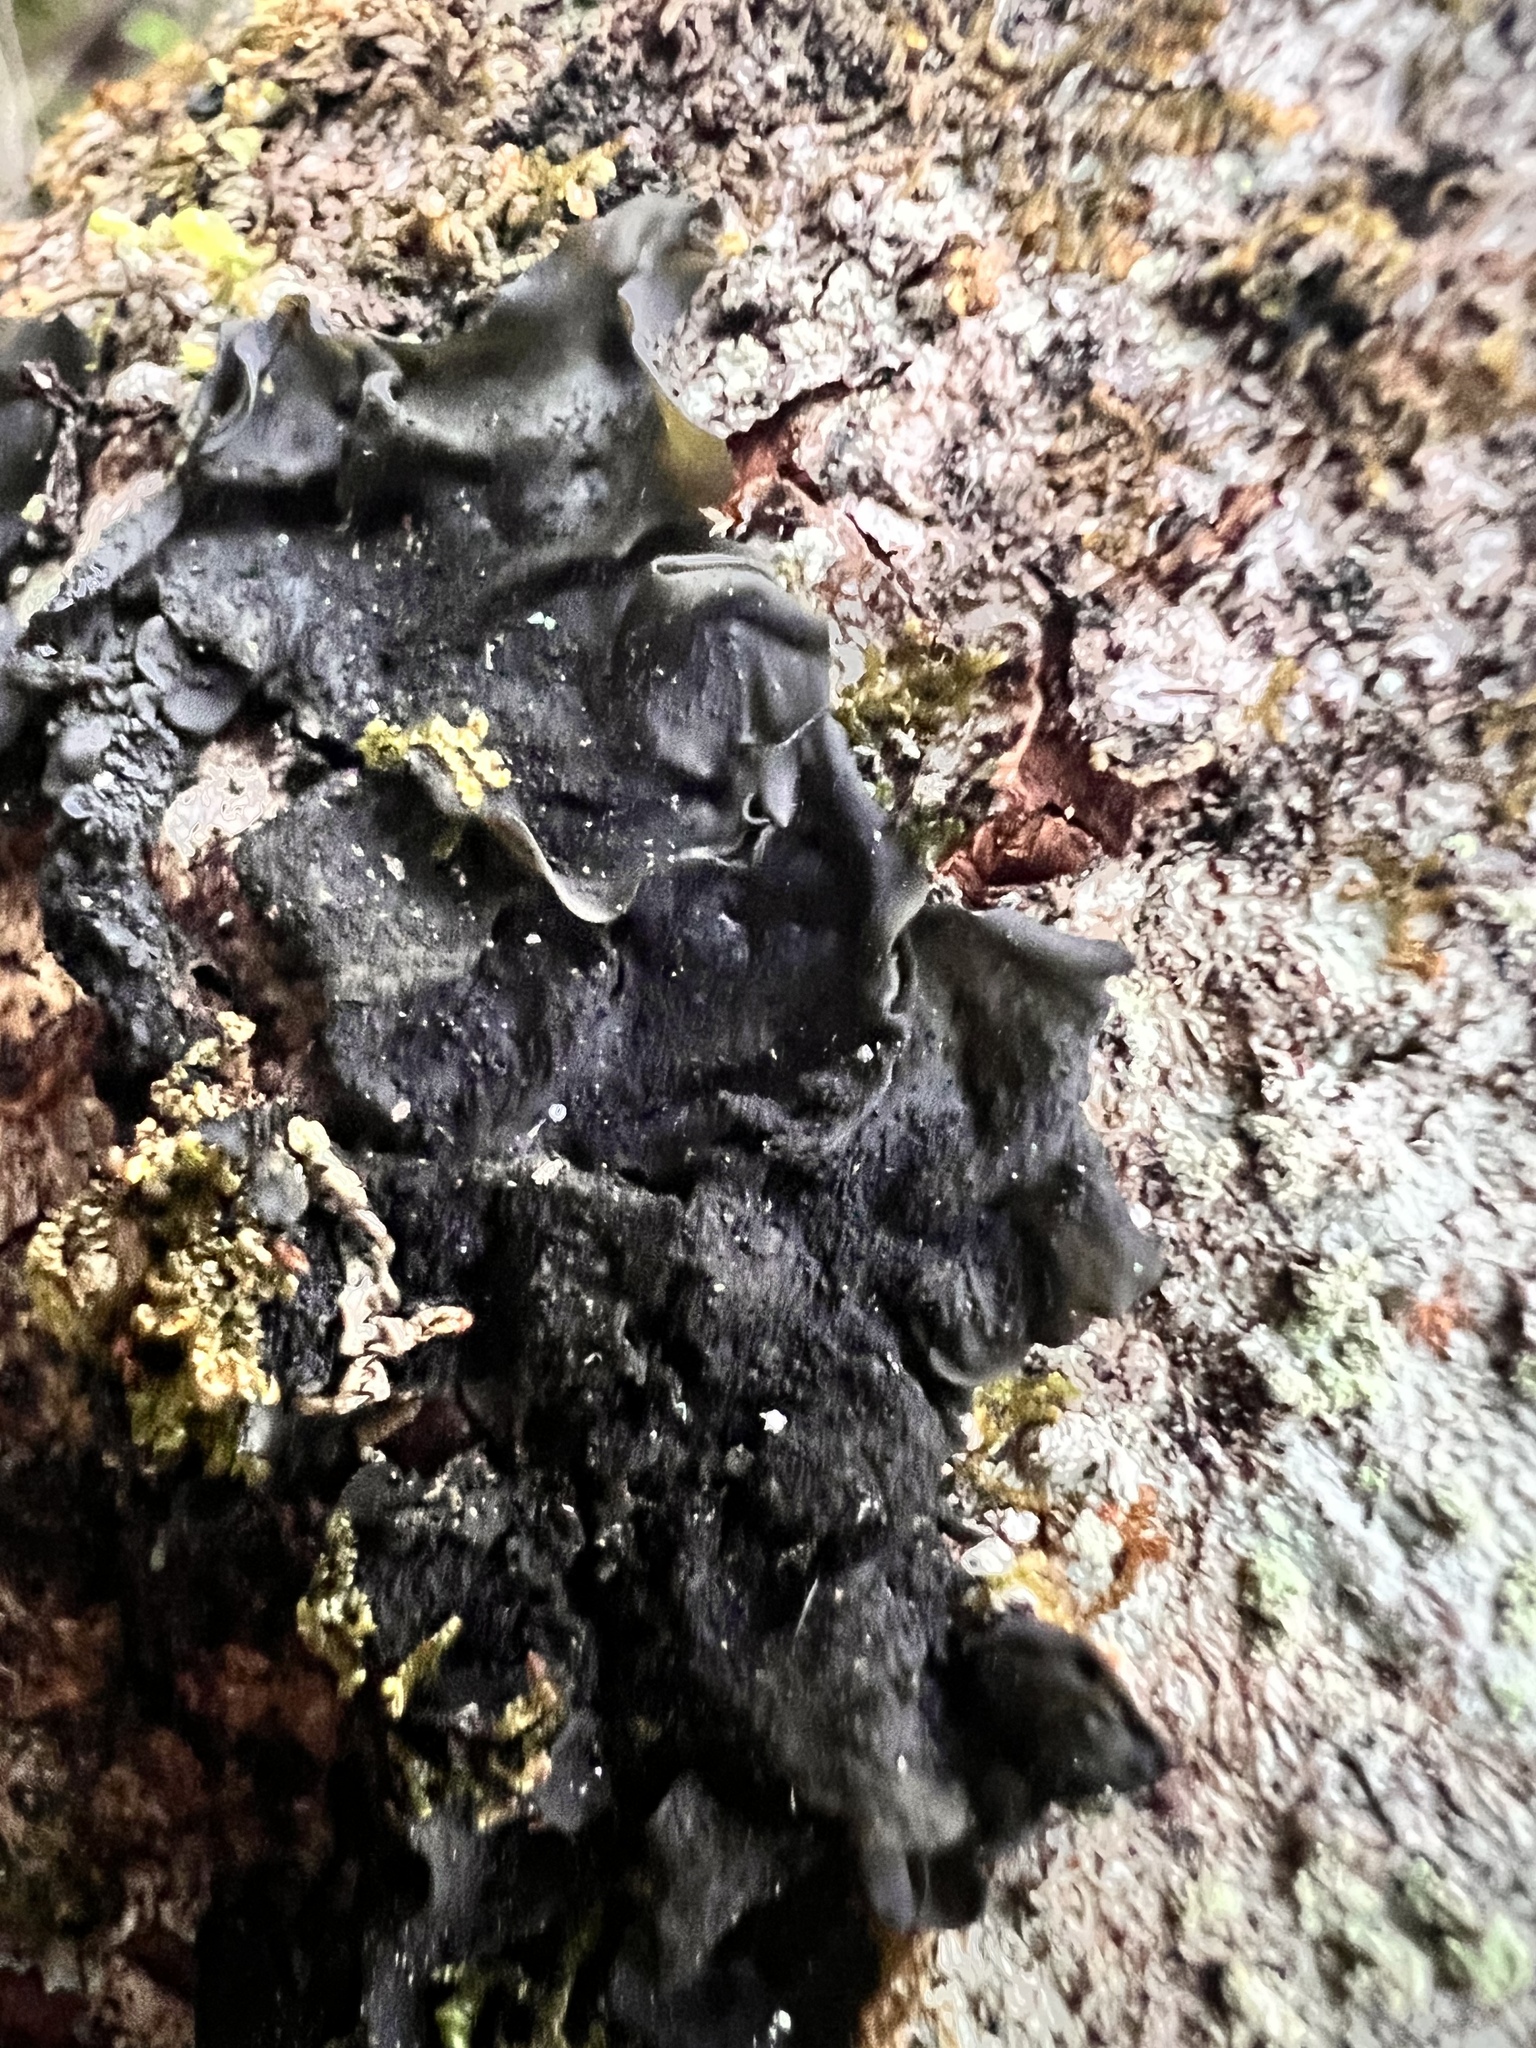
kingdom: Fungi
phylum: Ascomycota
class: Lecanoromycetes
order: Peltigerales
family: Collemataceae
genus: Collema
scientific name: Collema subflaccidum
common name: Tree jelly
